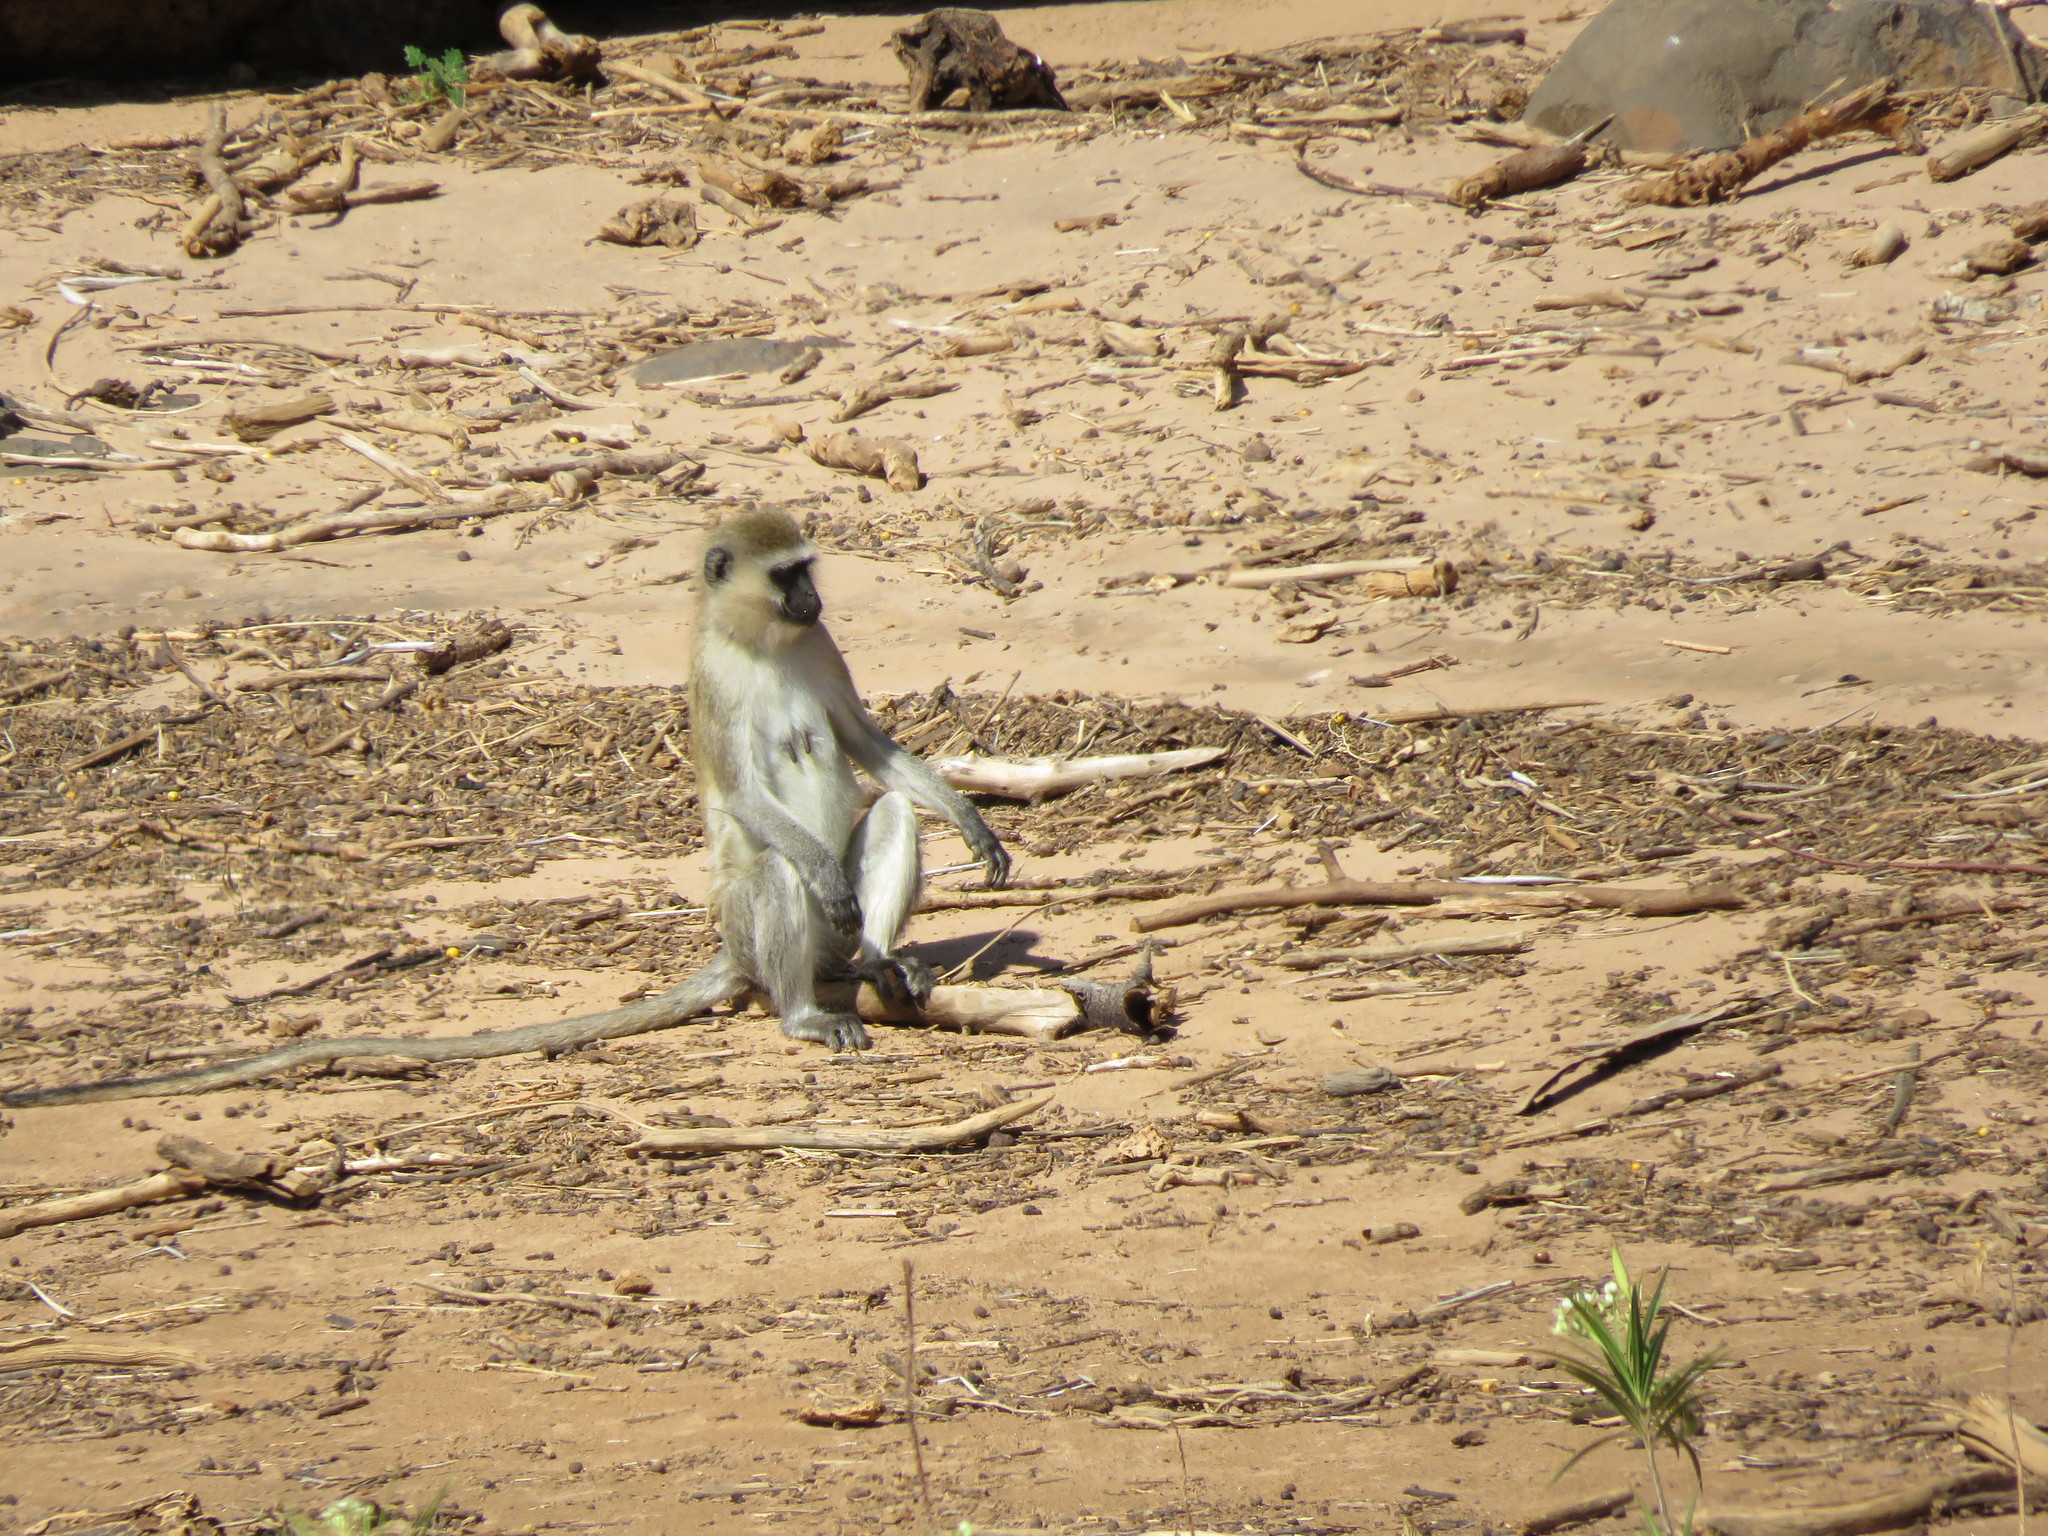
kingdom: Animalia
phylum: Chordata
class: Mammalia
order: Primates
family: Cercopithecidae
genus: Chlorocebus
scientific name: Chlorocebus pygerythrus
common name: Vervet monkey
